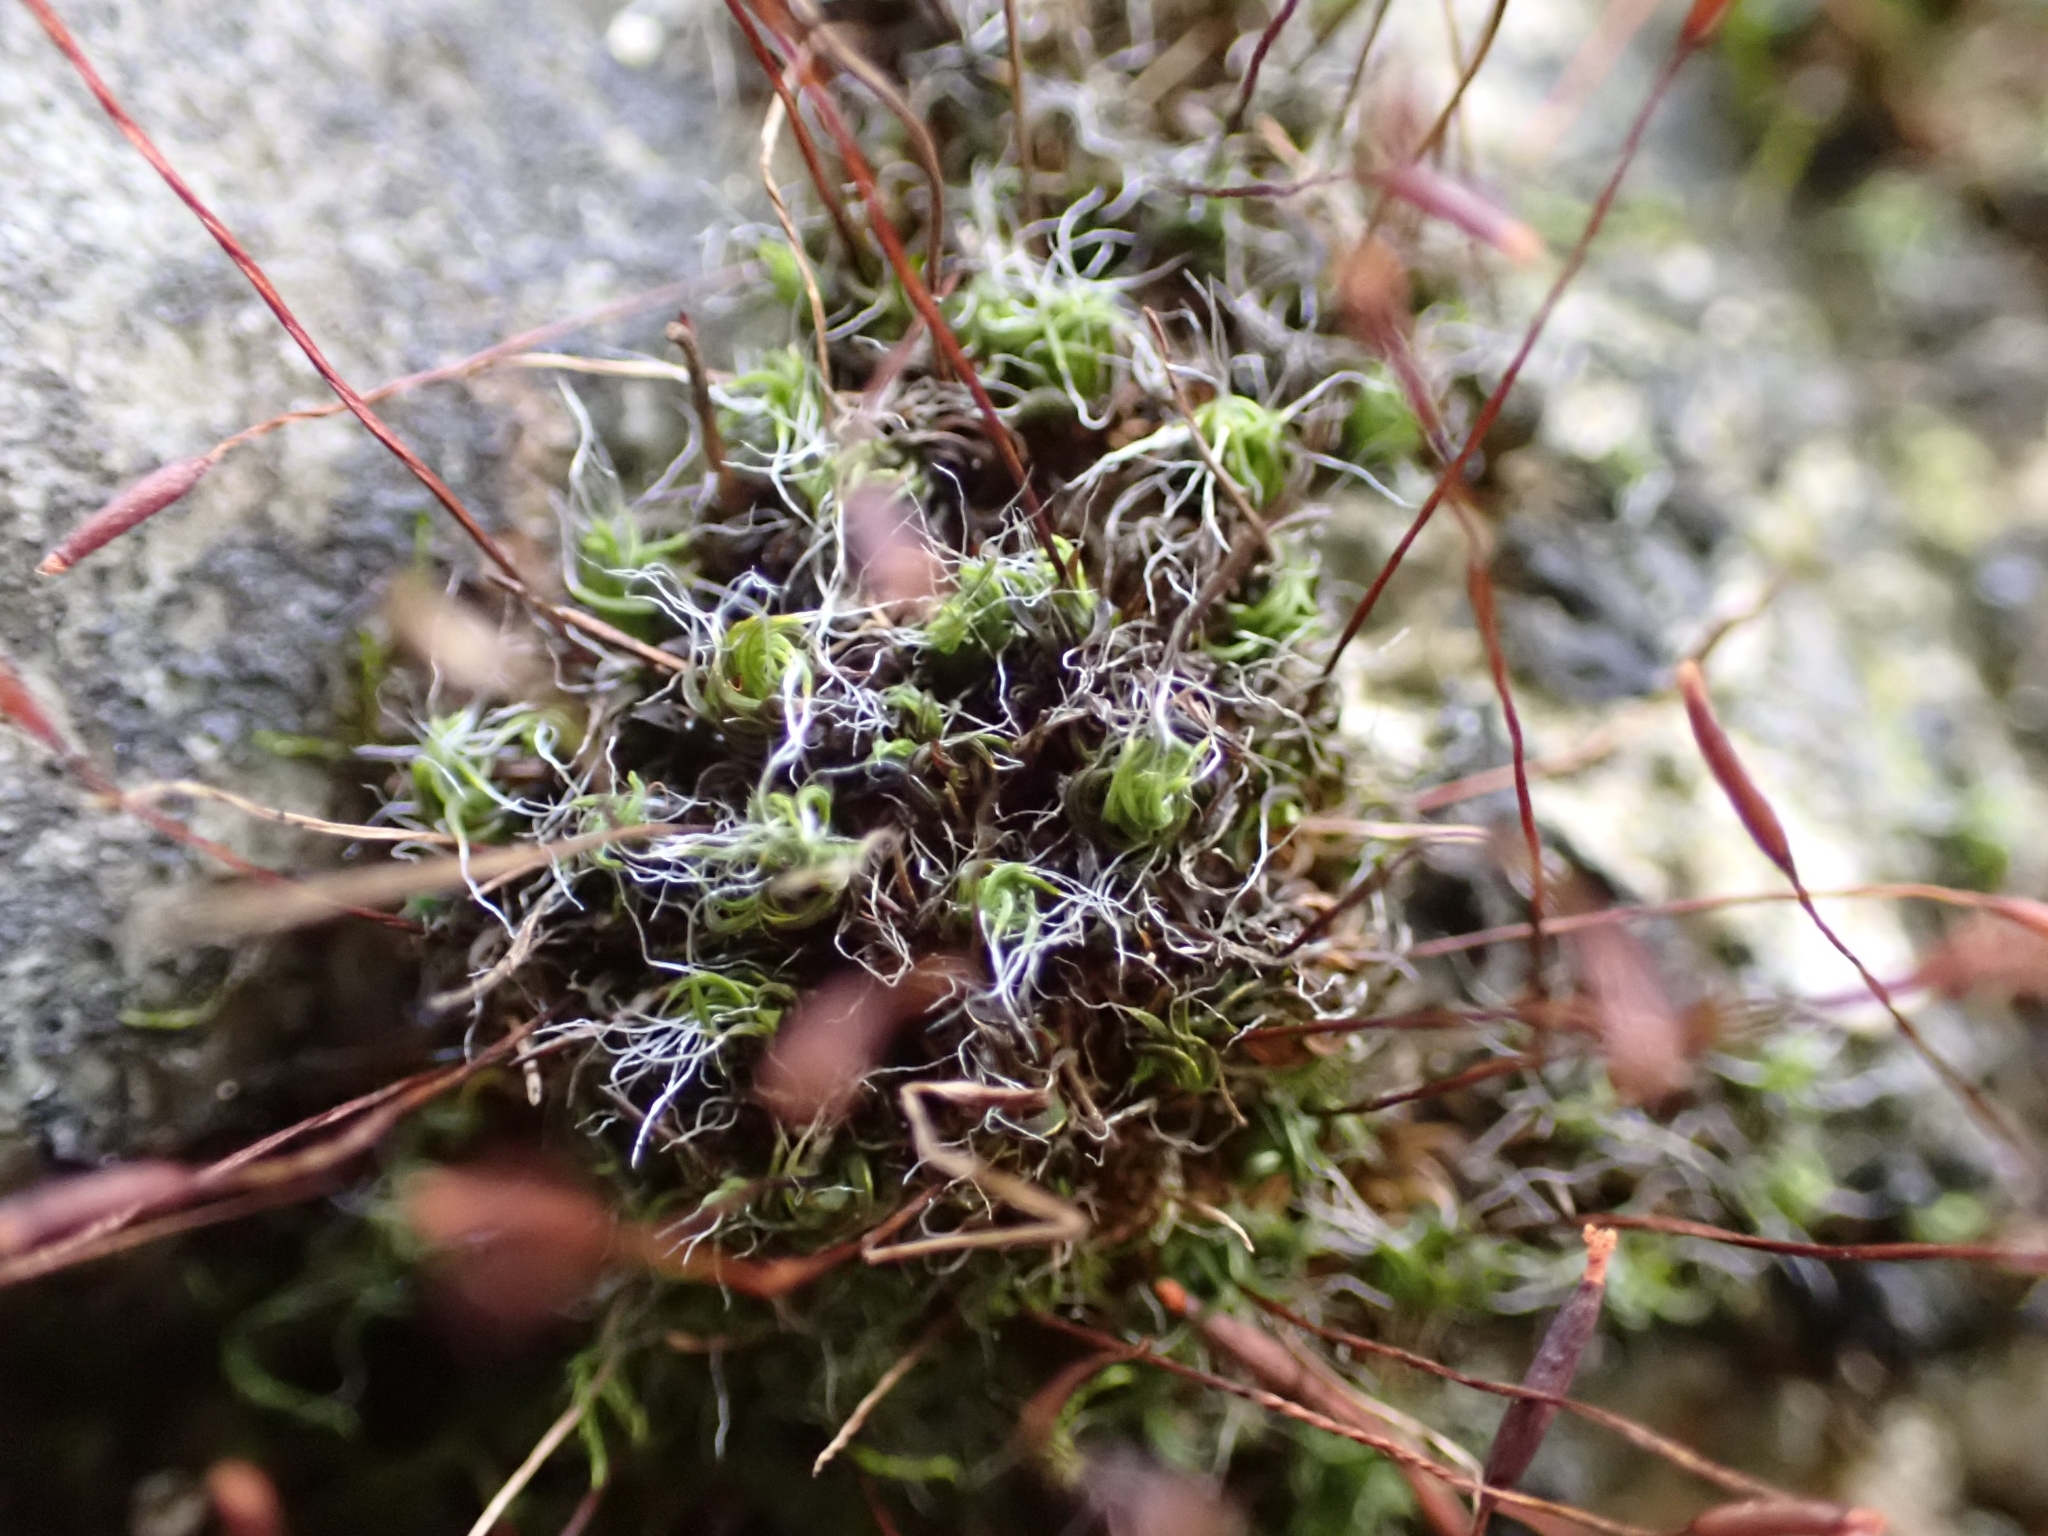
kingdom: Plantae
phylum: Bryophyta
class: Bryopsida
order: Pottiales
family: Pottiaceae
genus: Tortula
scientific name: Tortula muralis
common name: Wall screw-moss
